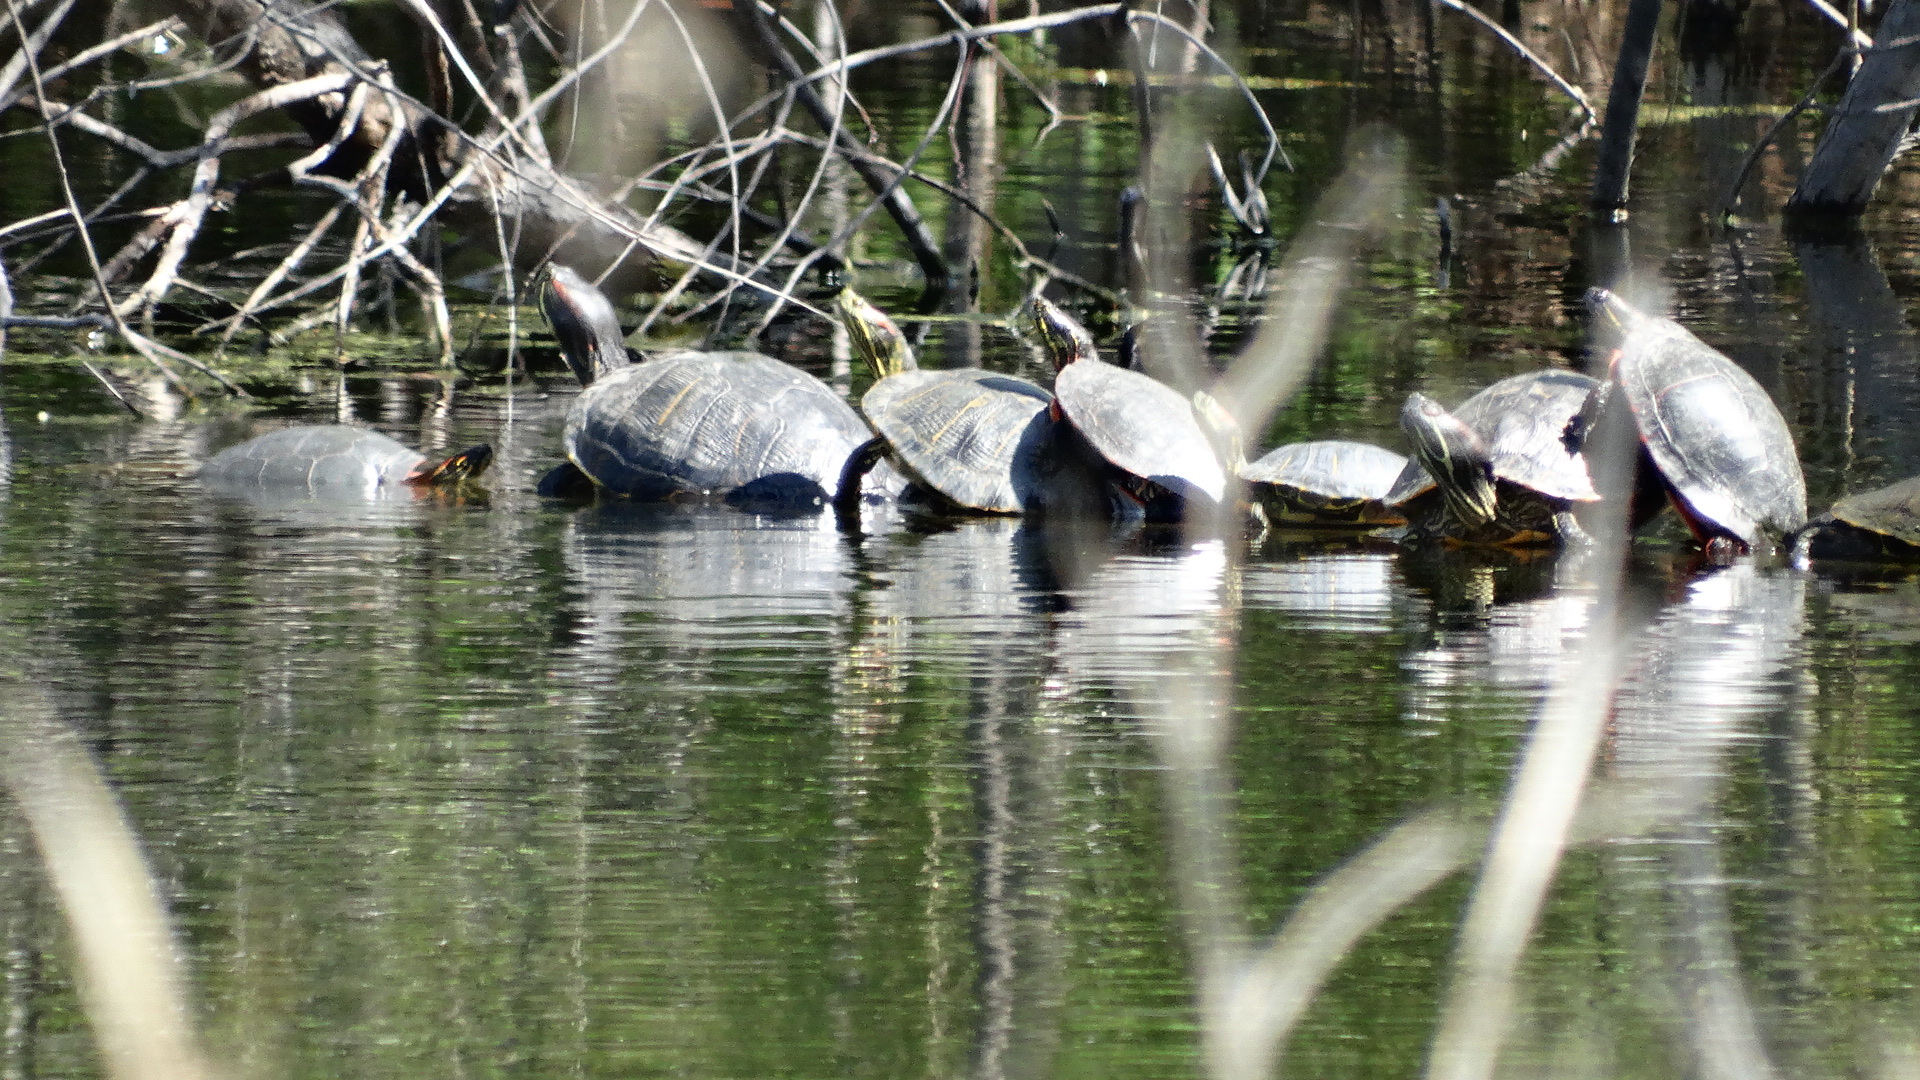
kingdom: Animalia
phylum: Chordata
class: Testudines
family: Emydidae
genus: Trachemys
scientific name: Trachemys scripta
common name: Slider
